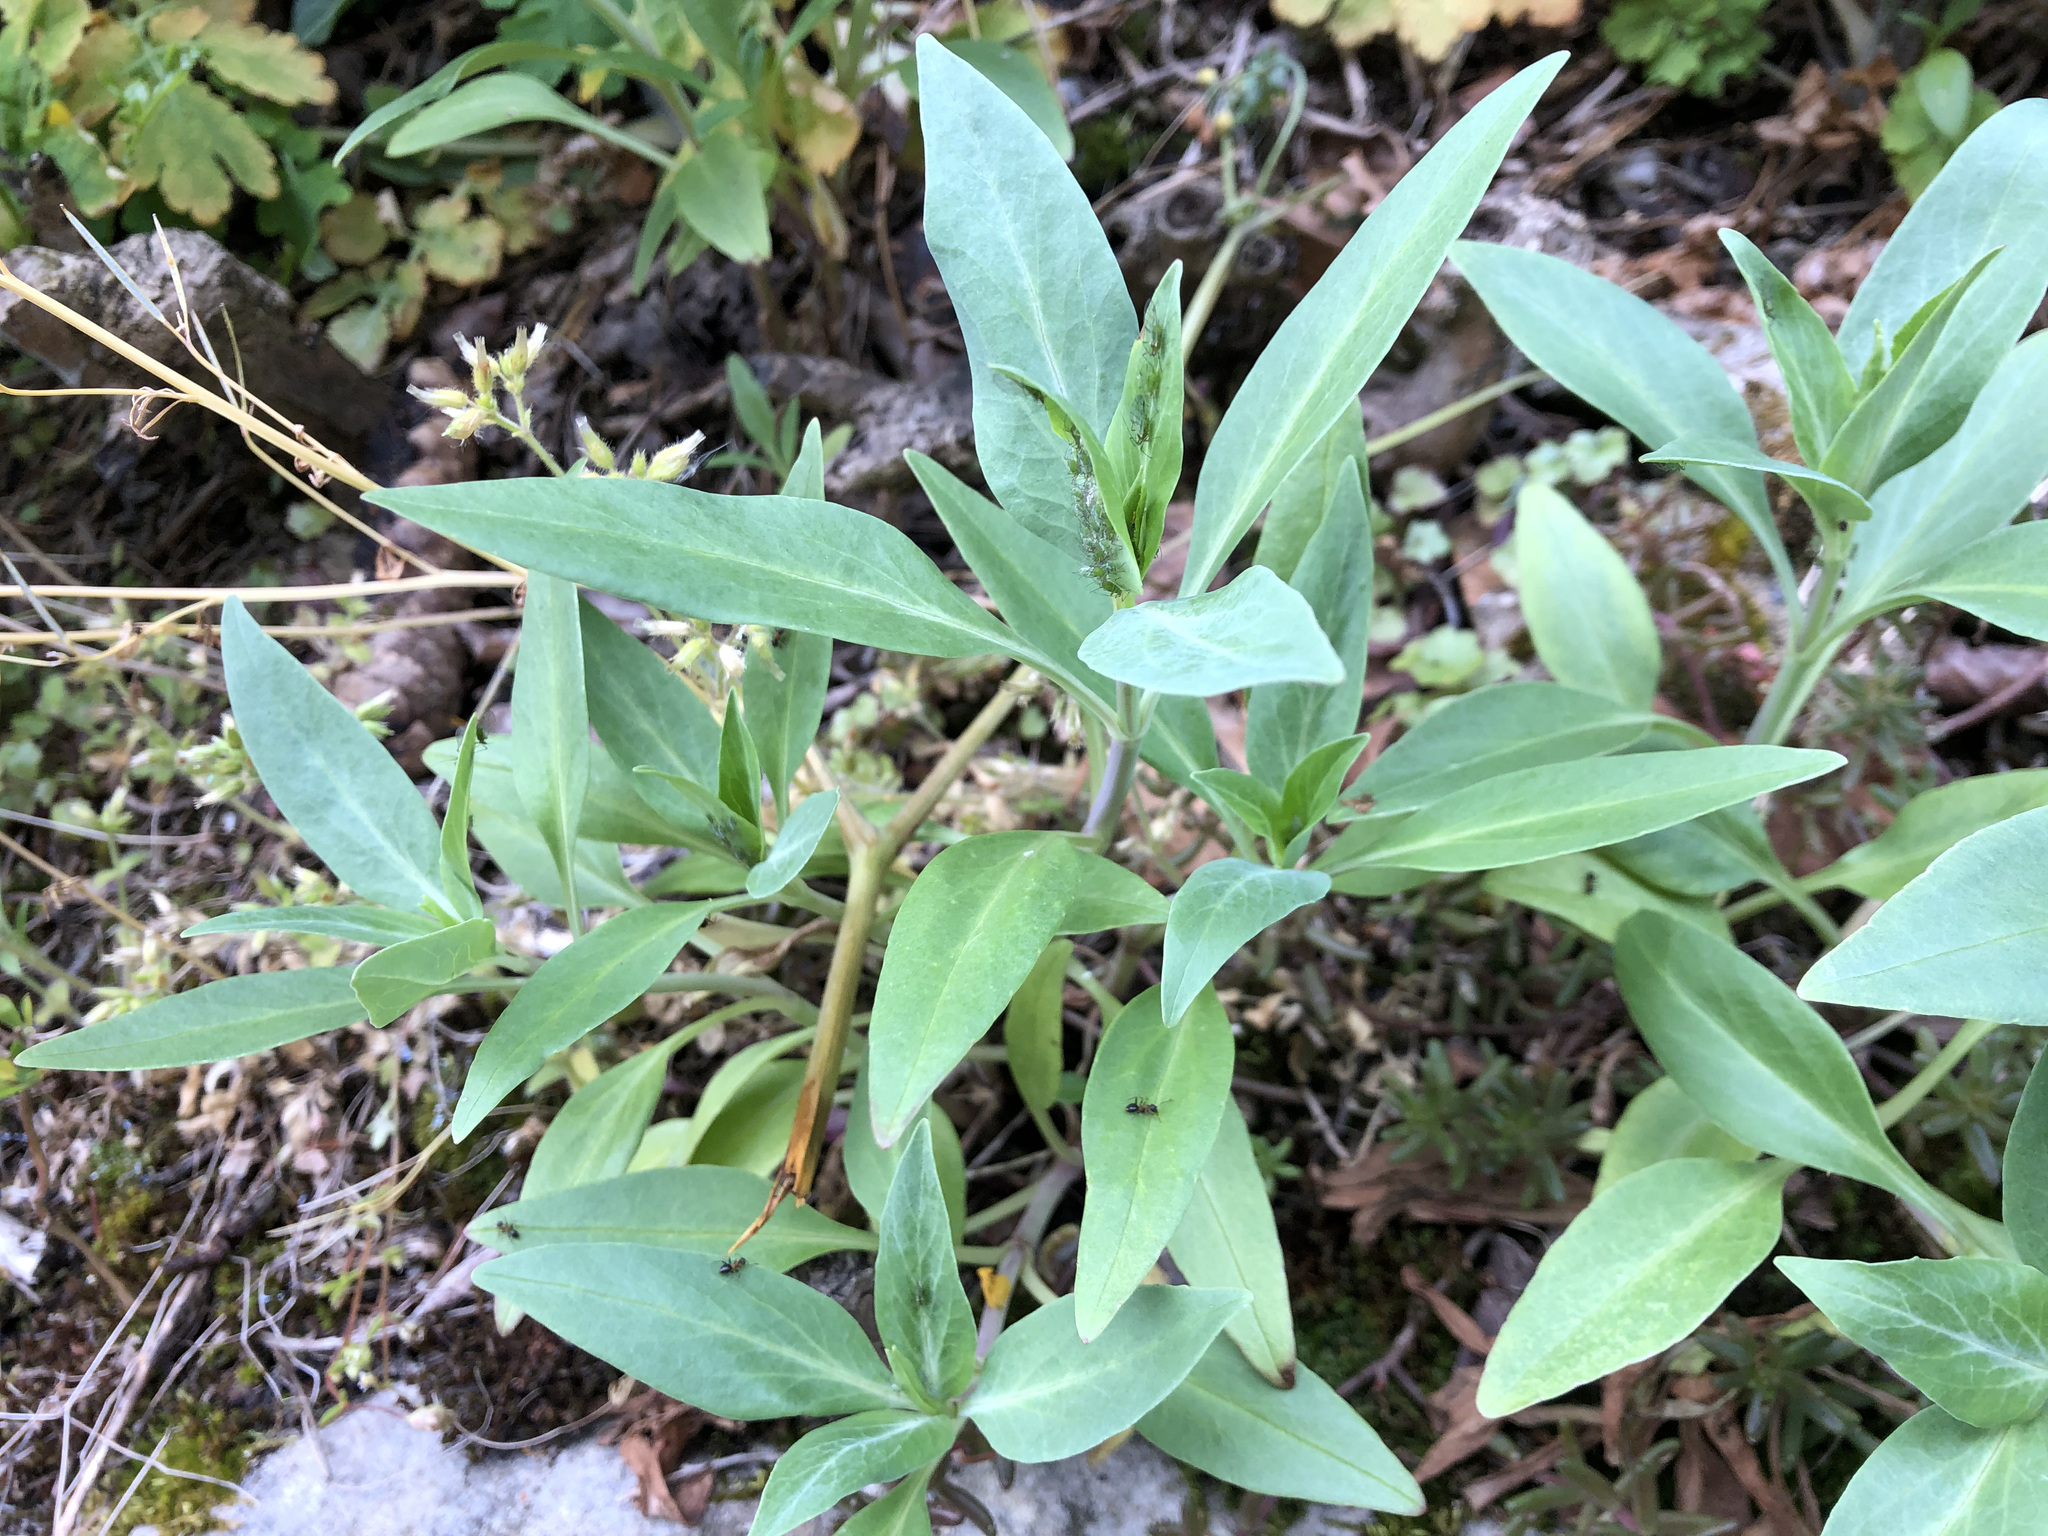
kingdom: Plantae
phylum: Tracheophyta
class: Magnoliopsida
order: Dipsacales
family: Caprifoliaceae
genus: Centranthus
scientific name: Centranthus ruber
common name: Red valerian
